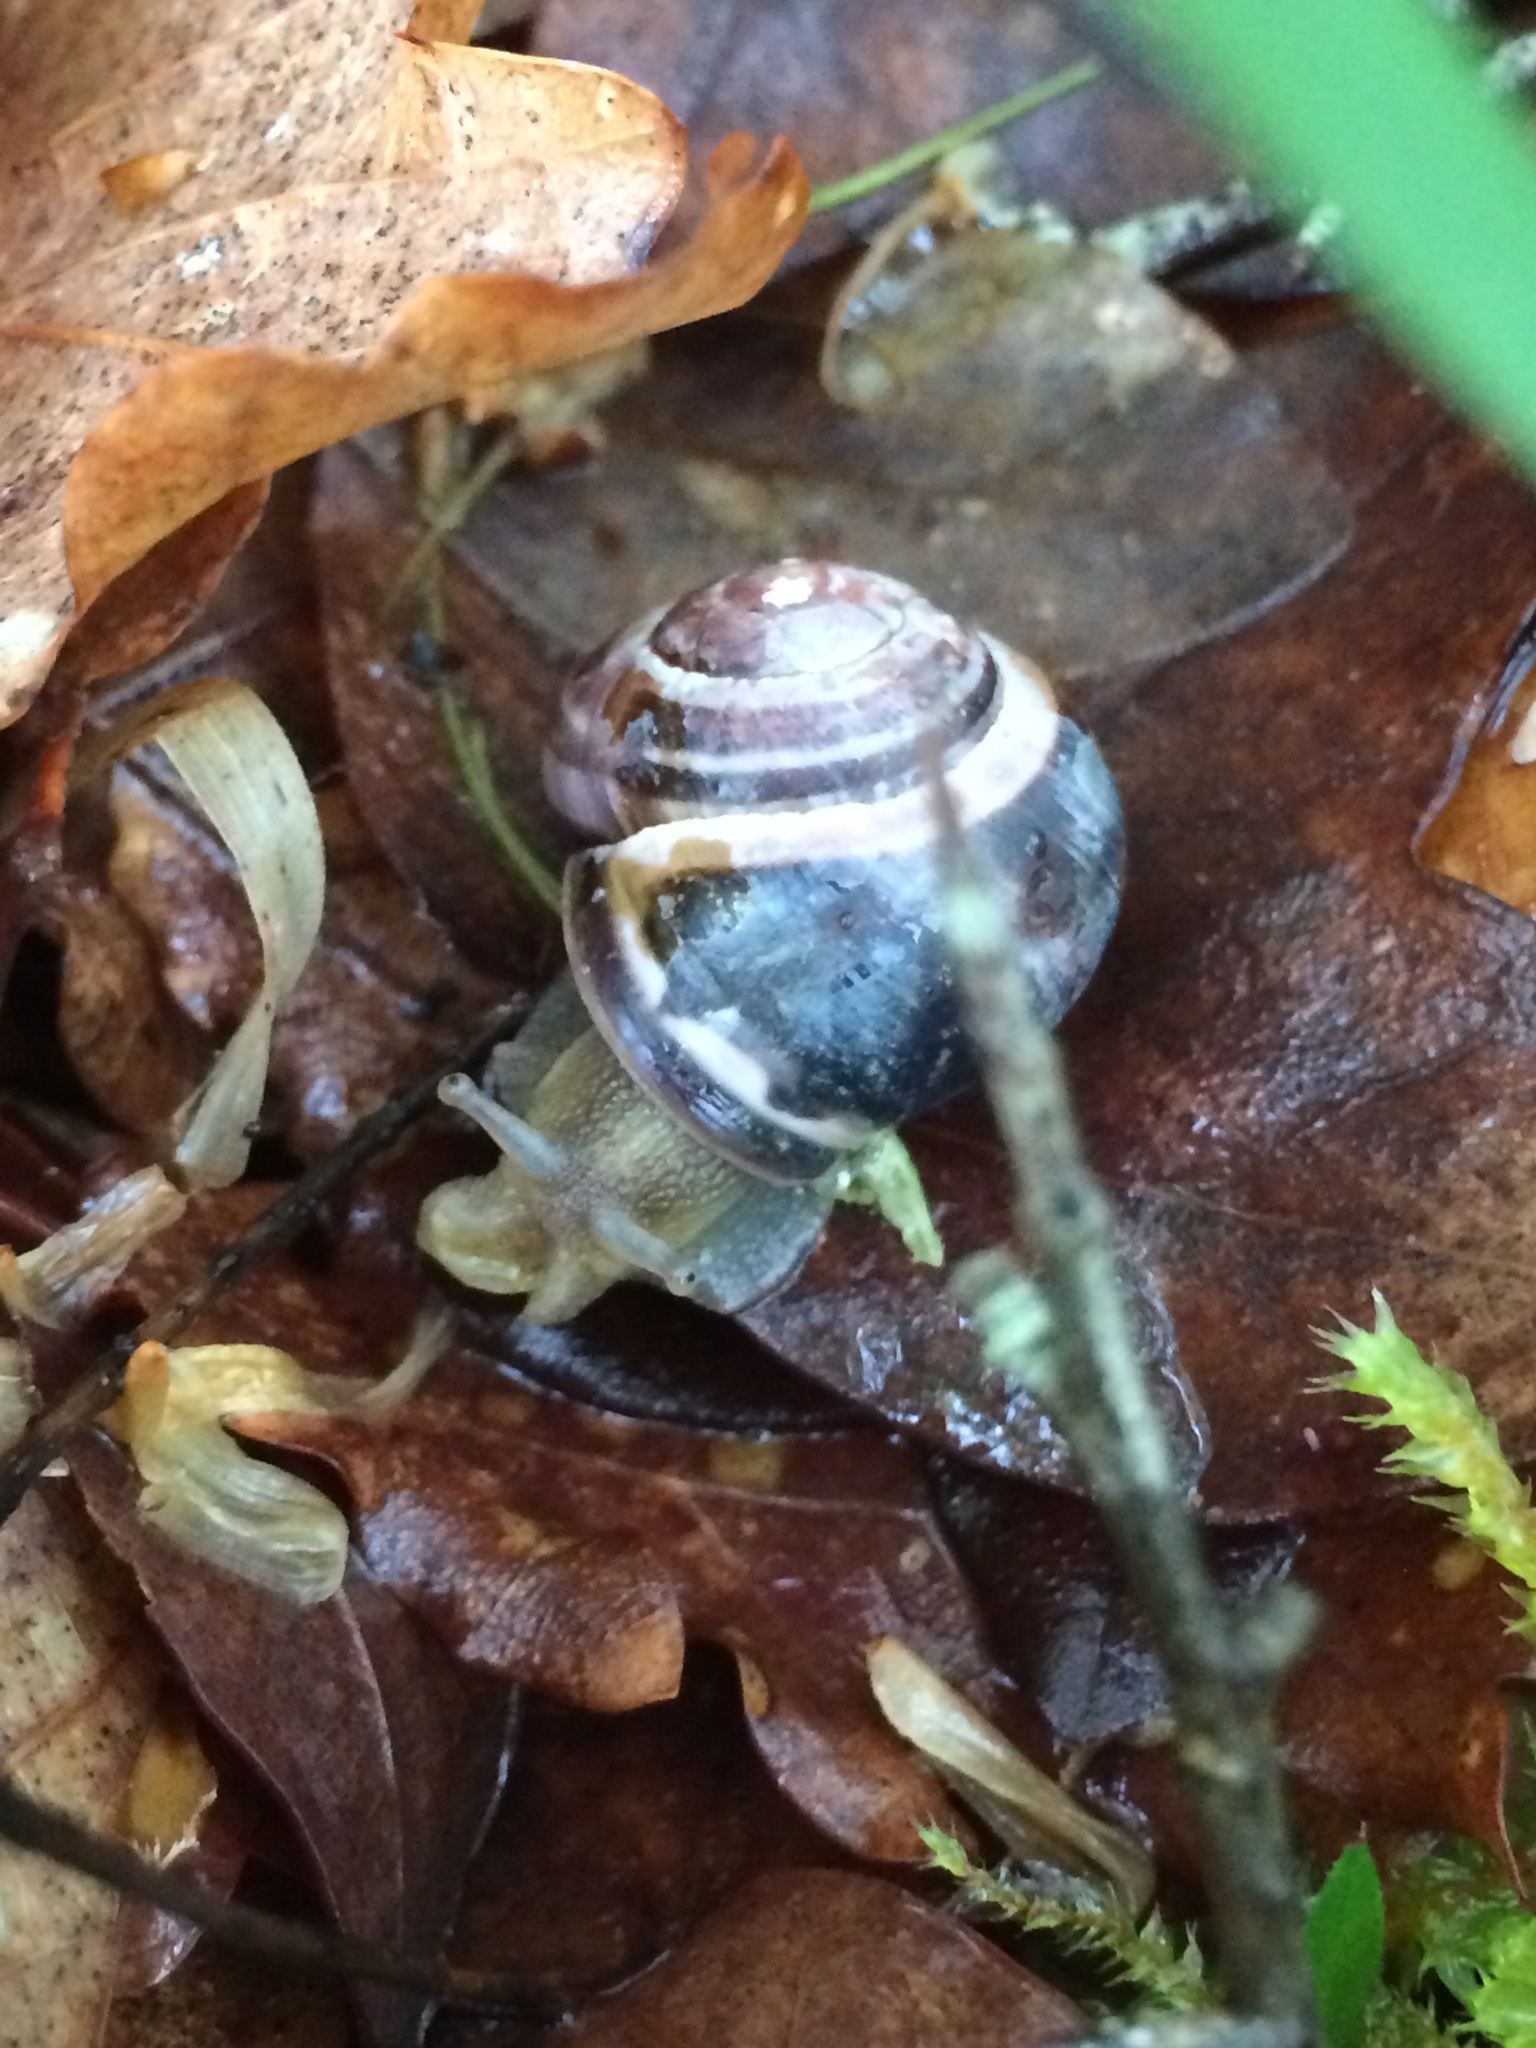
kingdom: Animalia
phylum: Mollusca
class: Gastropoda
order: Stylommatophora
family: Helicidae
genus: Cepaea
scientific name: Cepaea nemoralis
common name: Grovesnail
